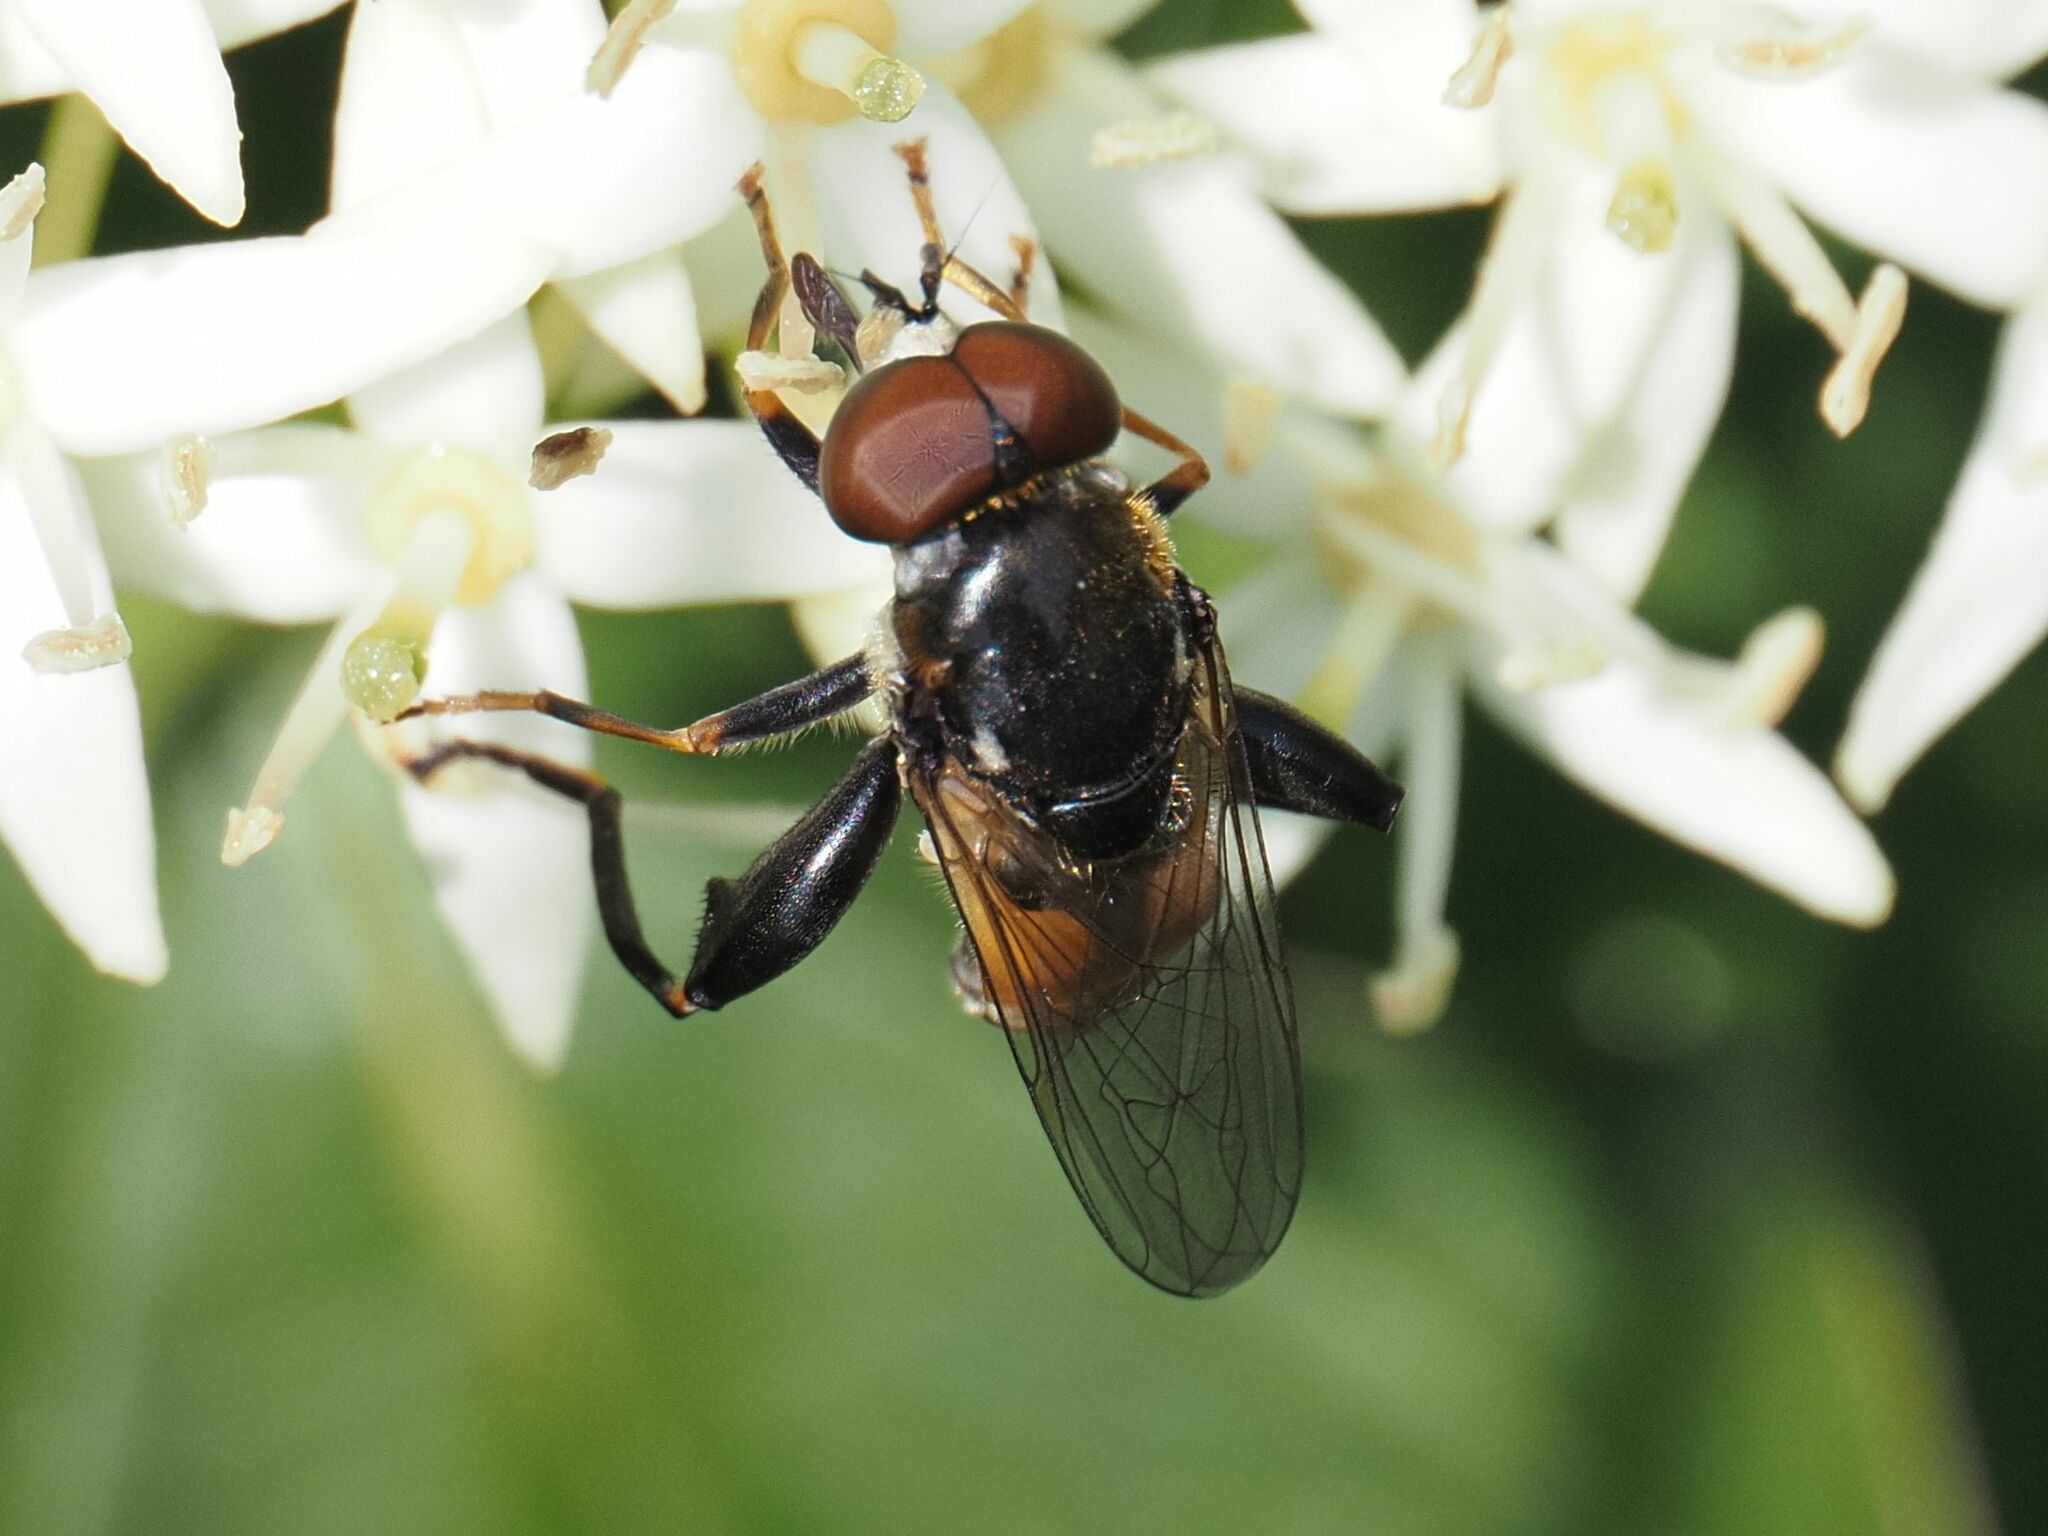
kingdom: Animalia
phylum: Arthropoda
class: Insecta
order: Diptera
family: Syrphidae
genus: Tropidia
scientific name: Tropidia scita
